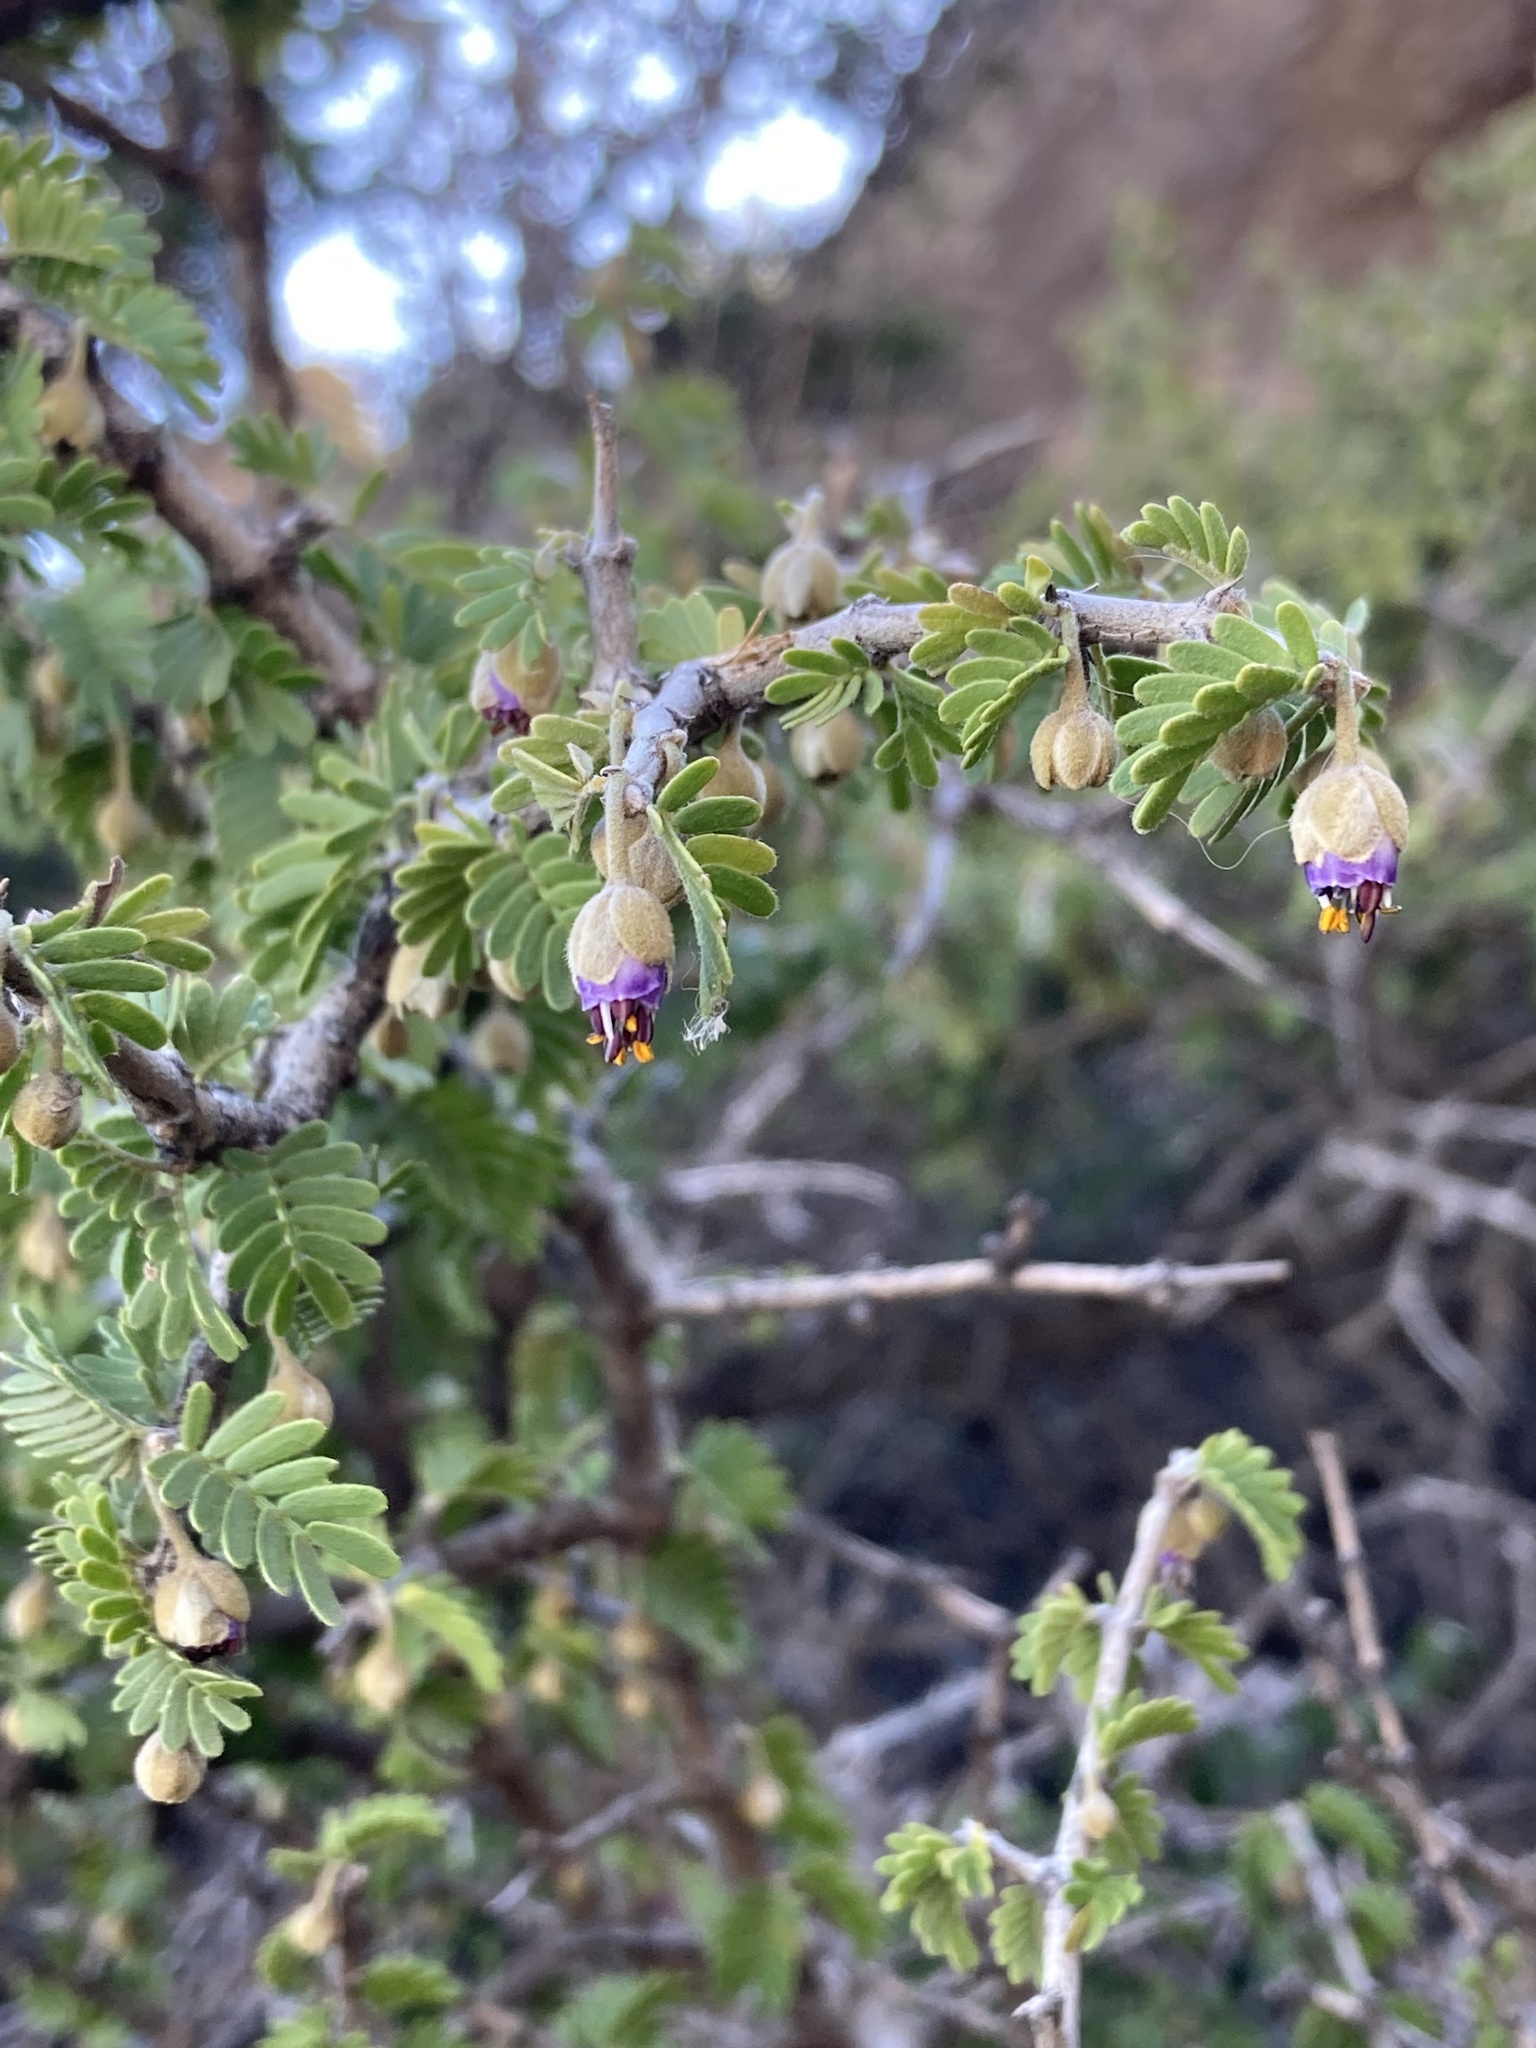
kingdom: Plantae
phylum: Tracheophyta
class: Magnoliopsida
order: Zygophyllales
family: Zygophyllaceae
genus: Porlieria
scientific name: Porlieria chilensis
